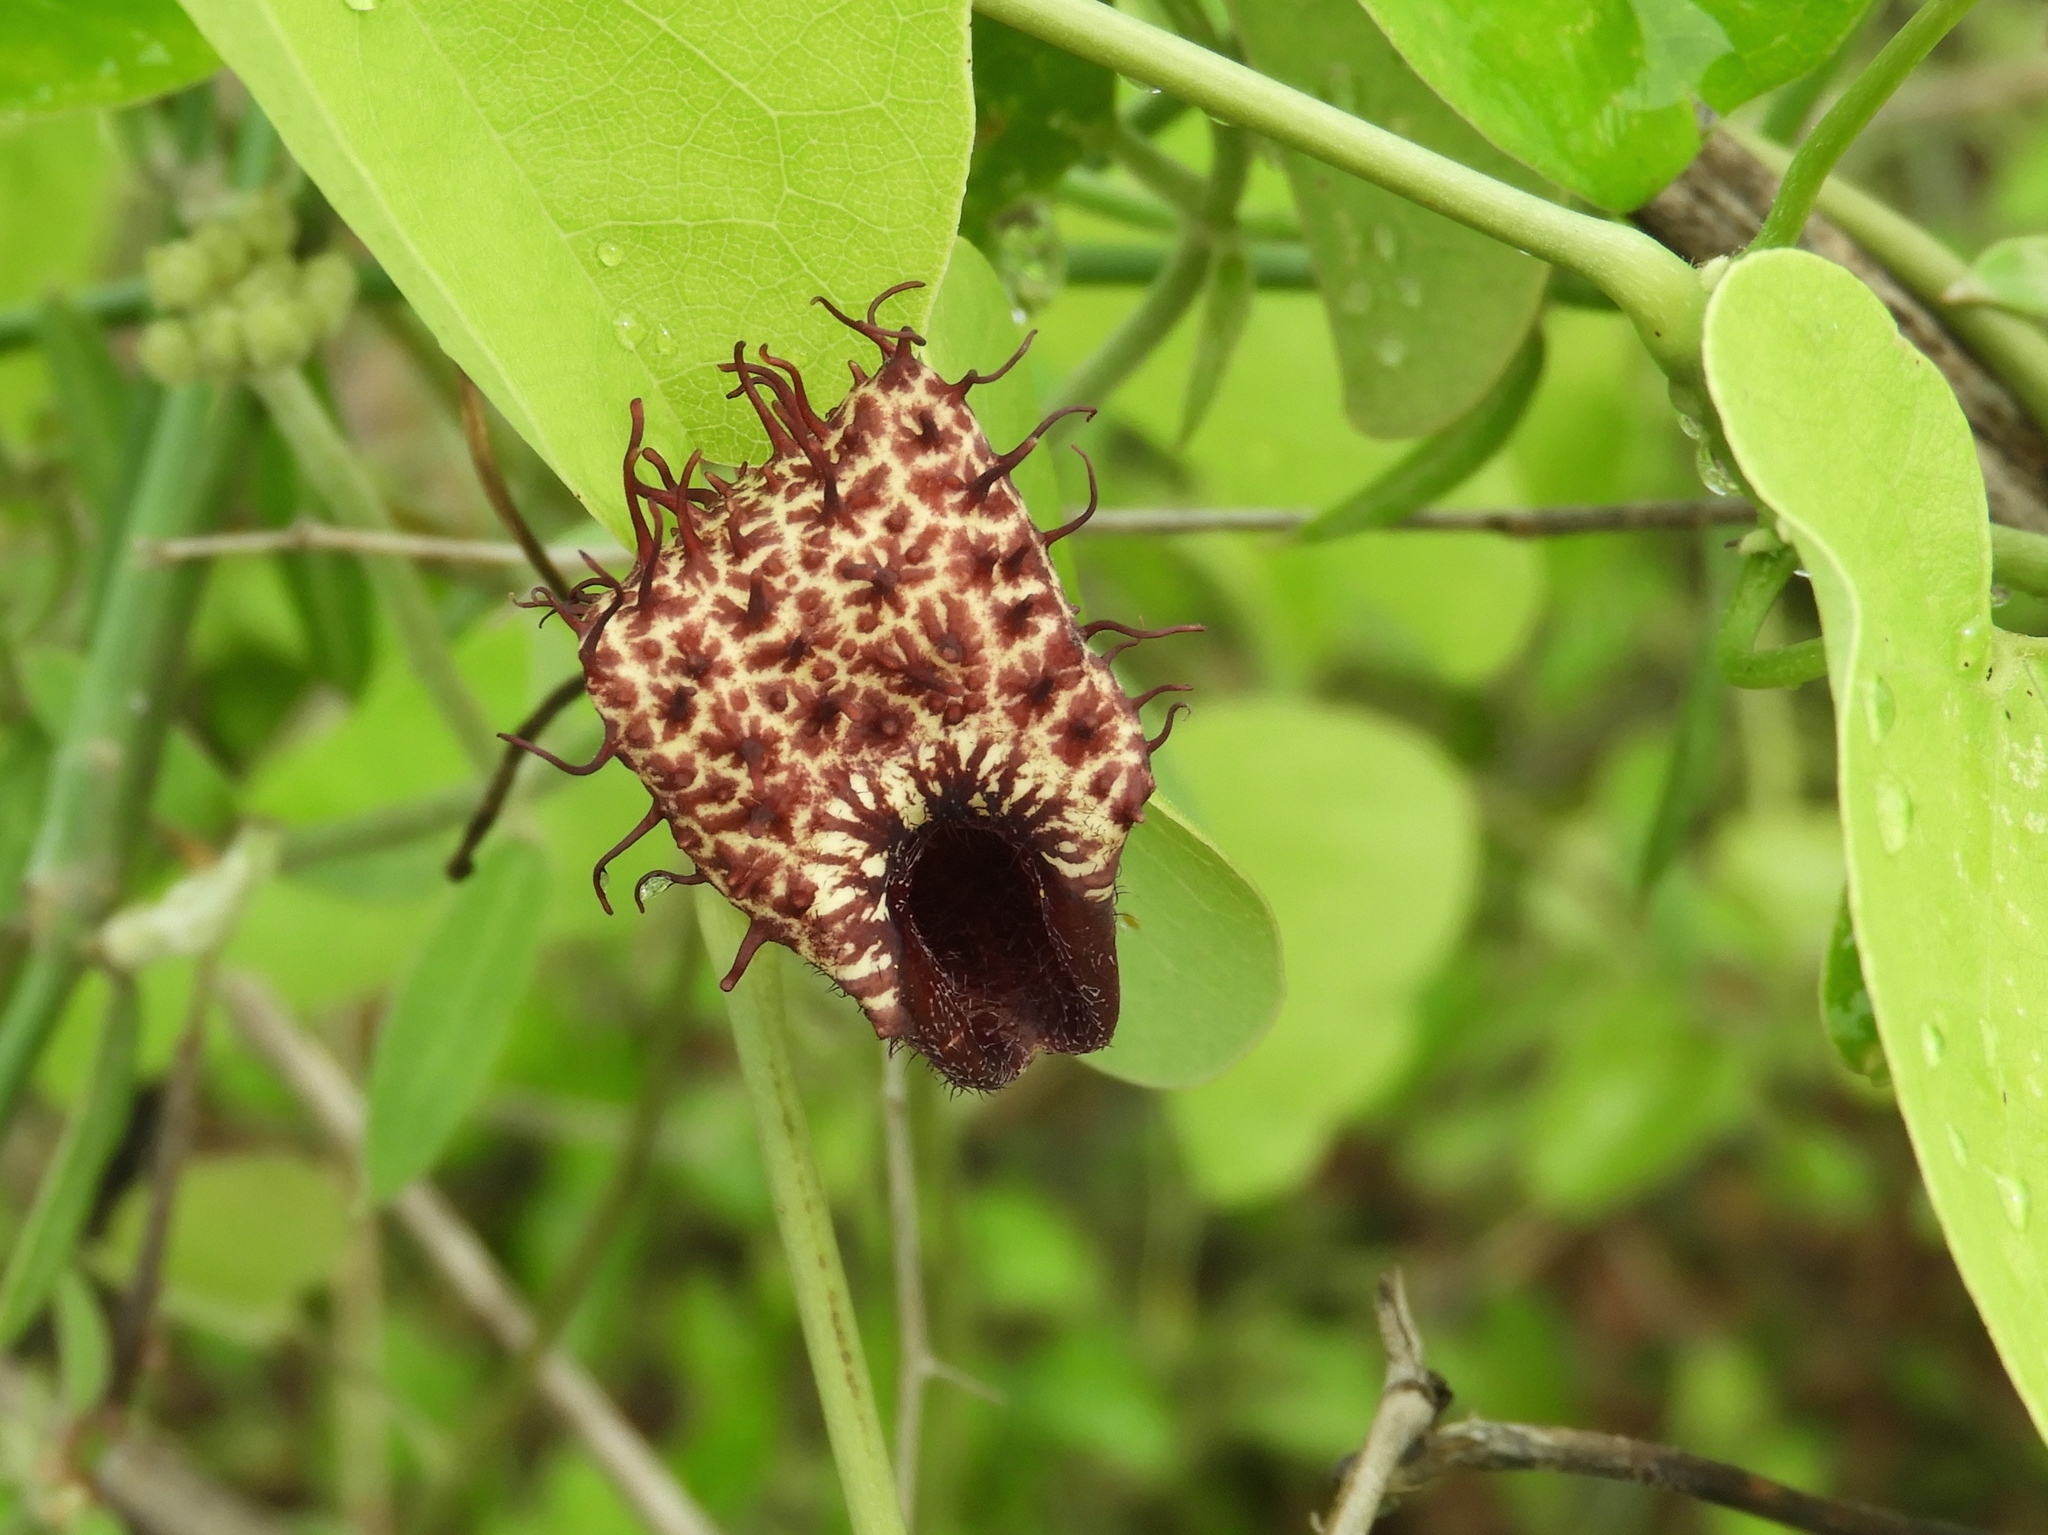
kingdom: Plantae
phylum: Tracheophyta
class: Magnoliopsida
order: Piperales
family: Aristolochiaceae
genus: Aristolochia
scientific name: Aristolochia taliscana
